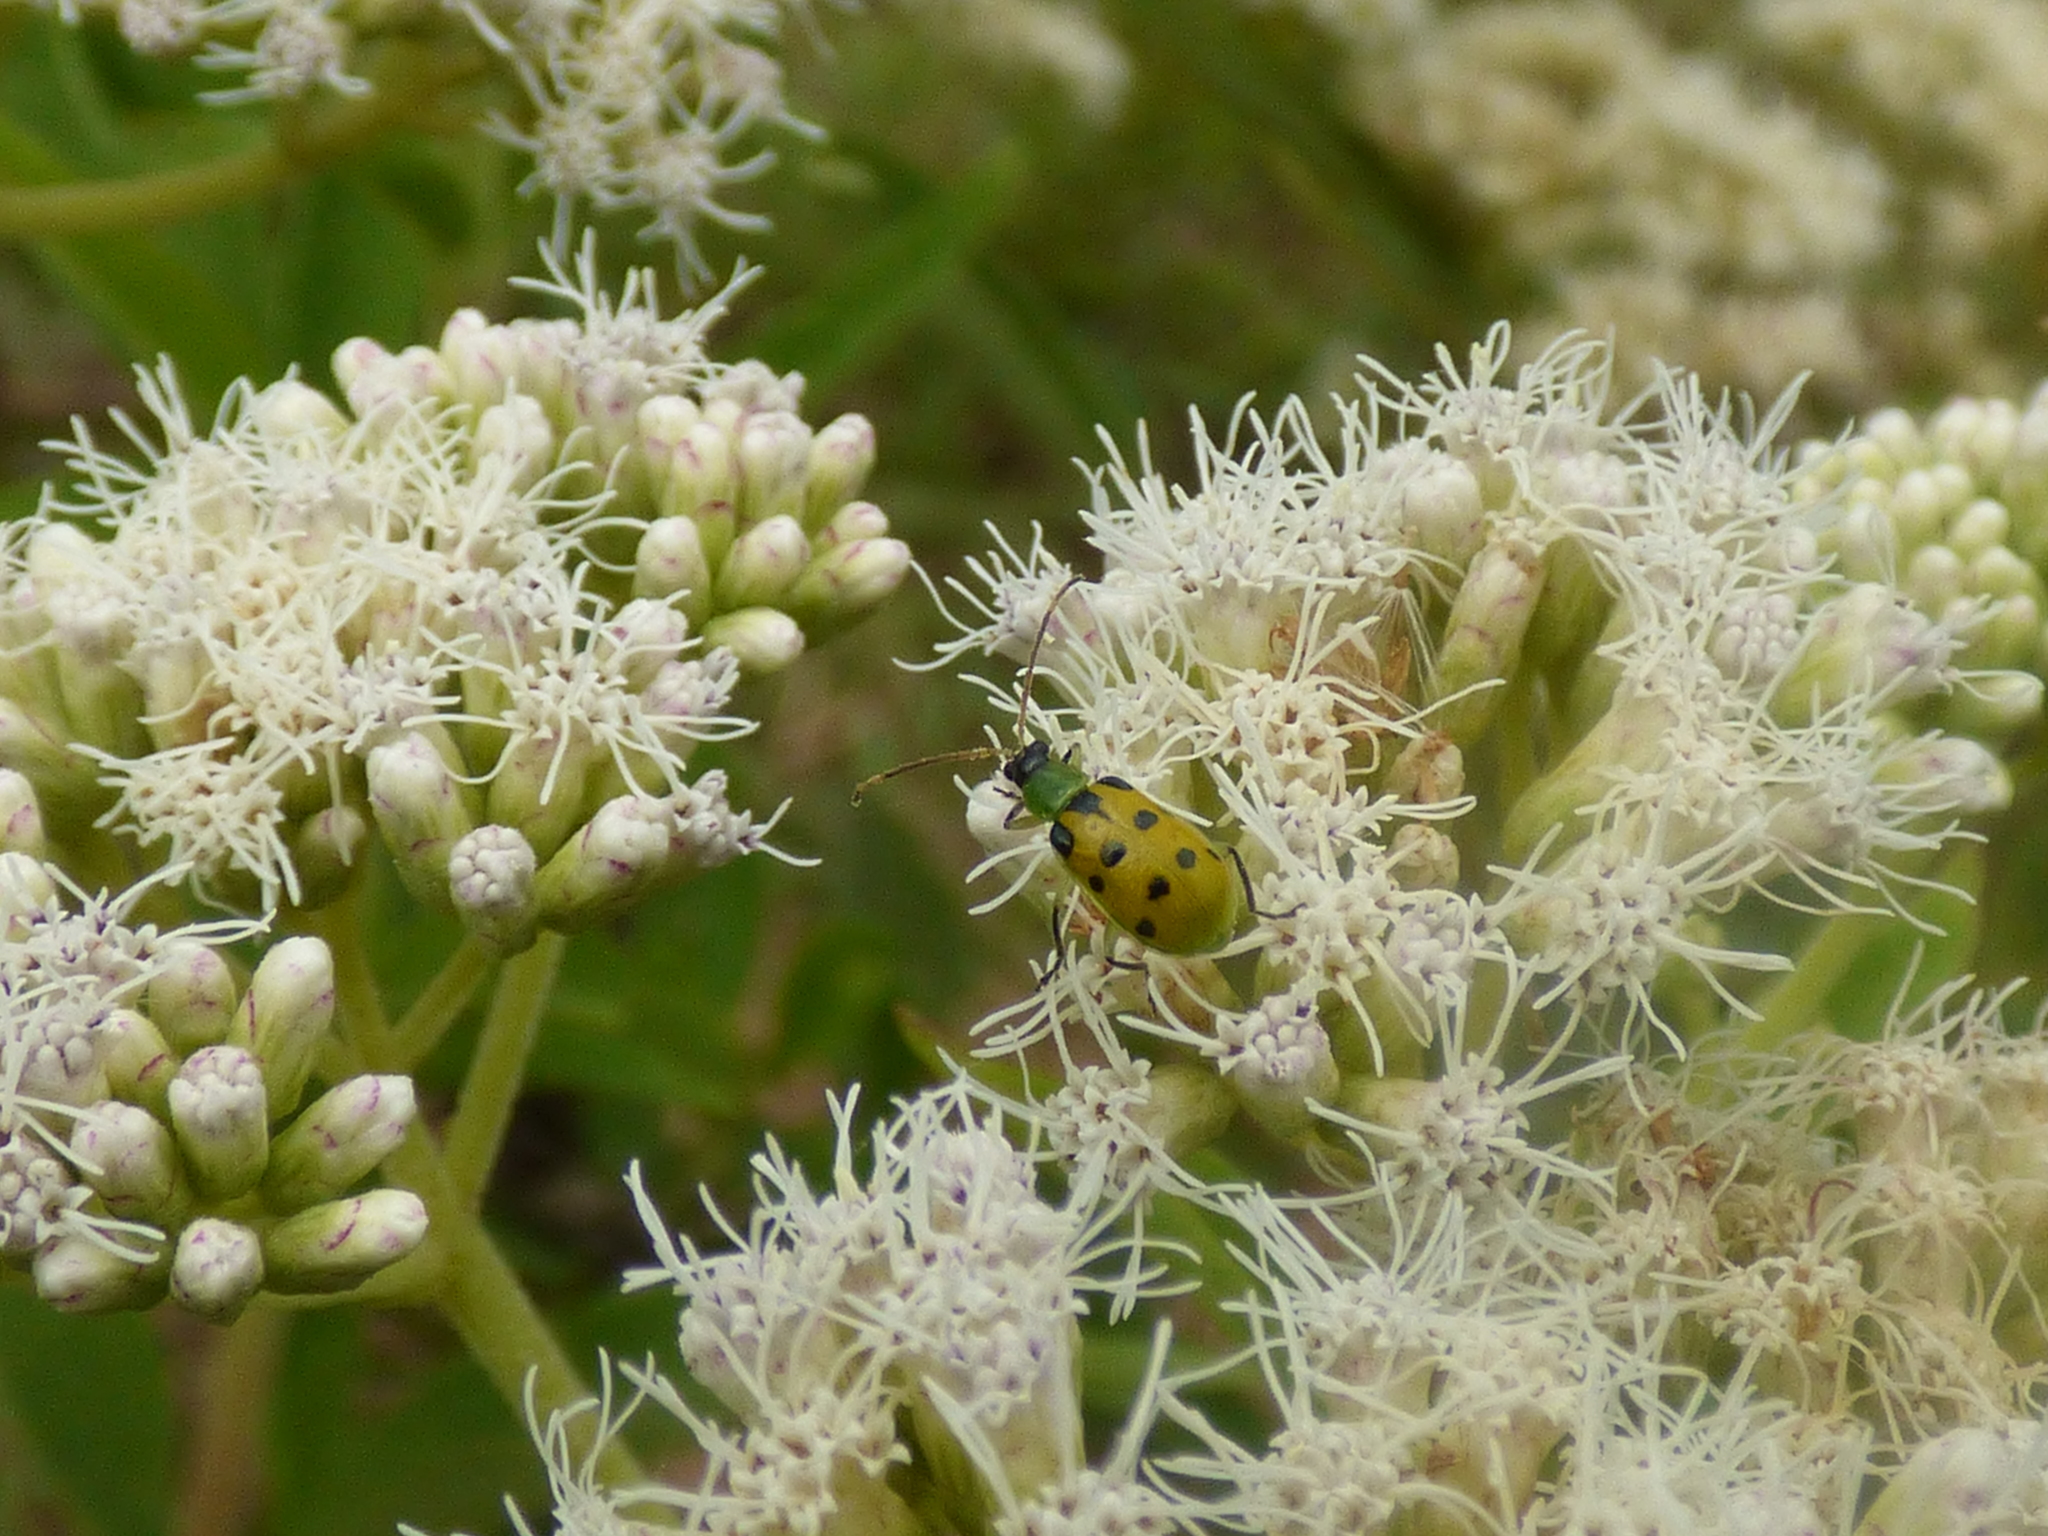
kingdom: Animalia
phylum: Arthropoda
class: Insecta
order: Coleoptera
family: Chrysomelidae
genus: Diabrotica
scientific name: Diabrotica decempunctata
